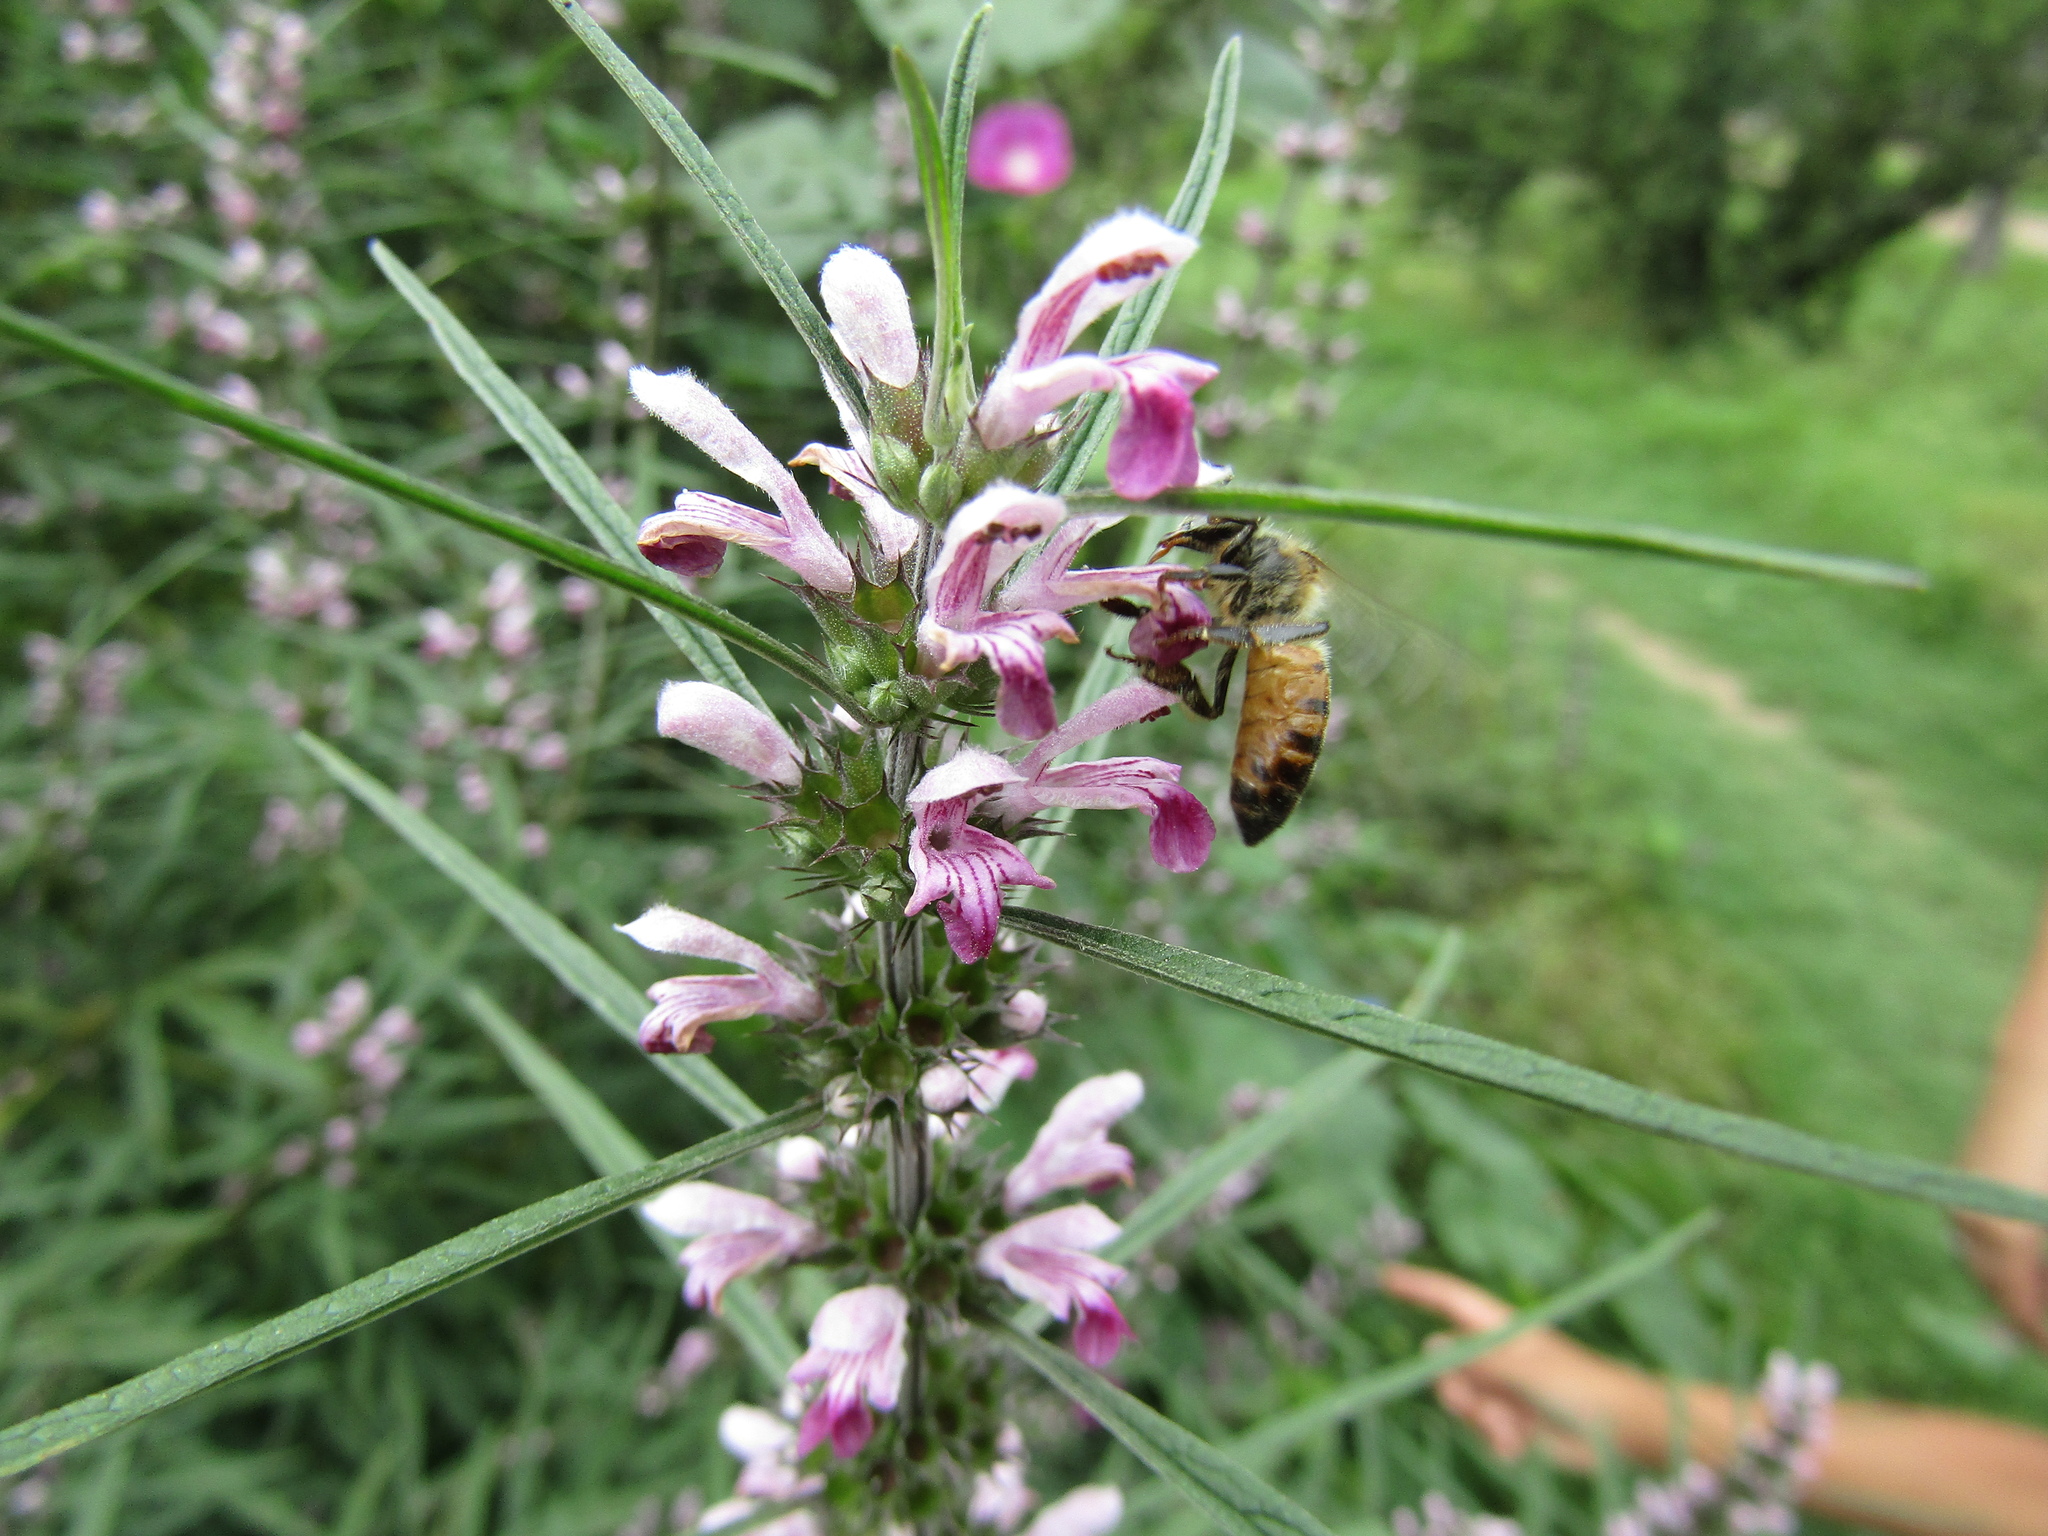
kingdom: Animalia
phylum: Arthropoda
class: Insecta
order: Hymenoptera
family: Apidae
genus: Apis
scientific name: Apis mellifera
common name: Honey bee
